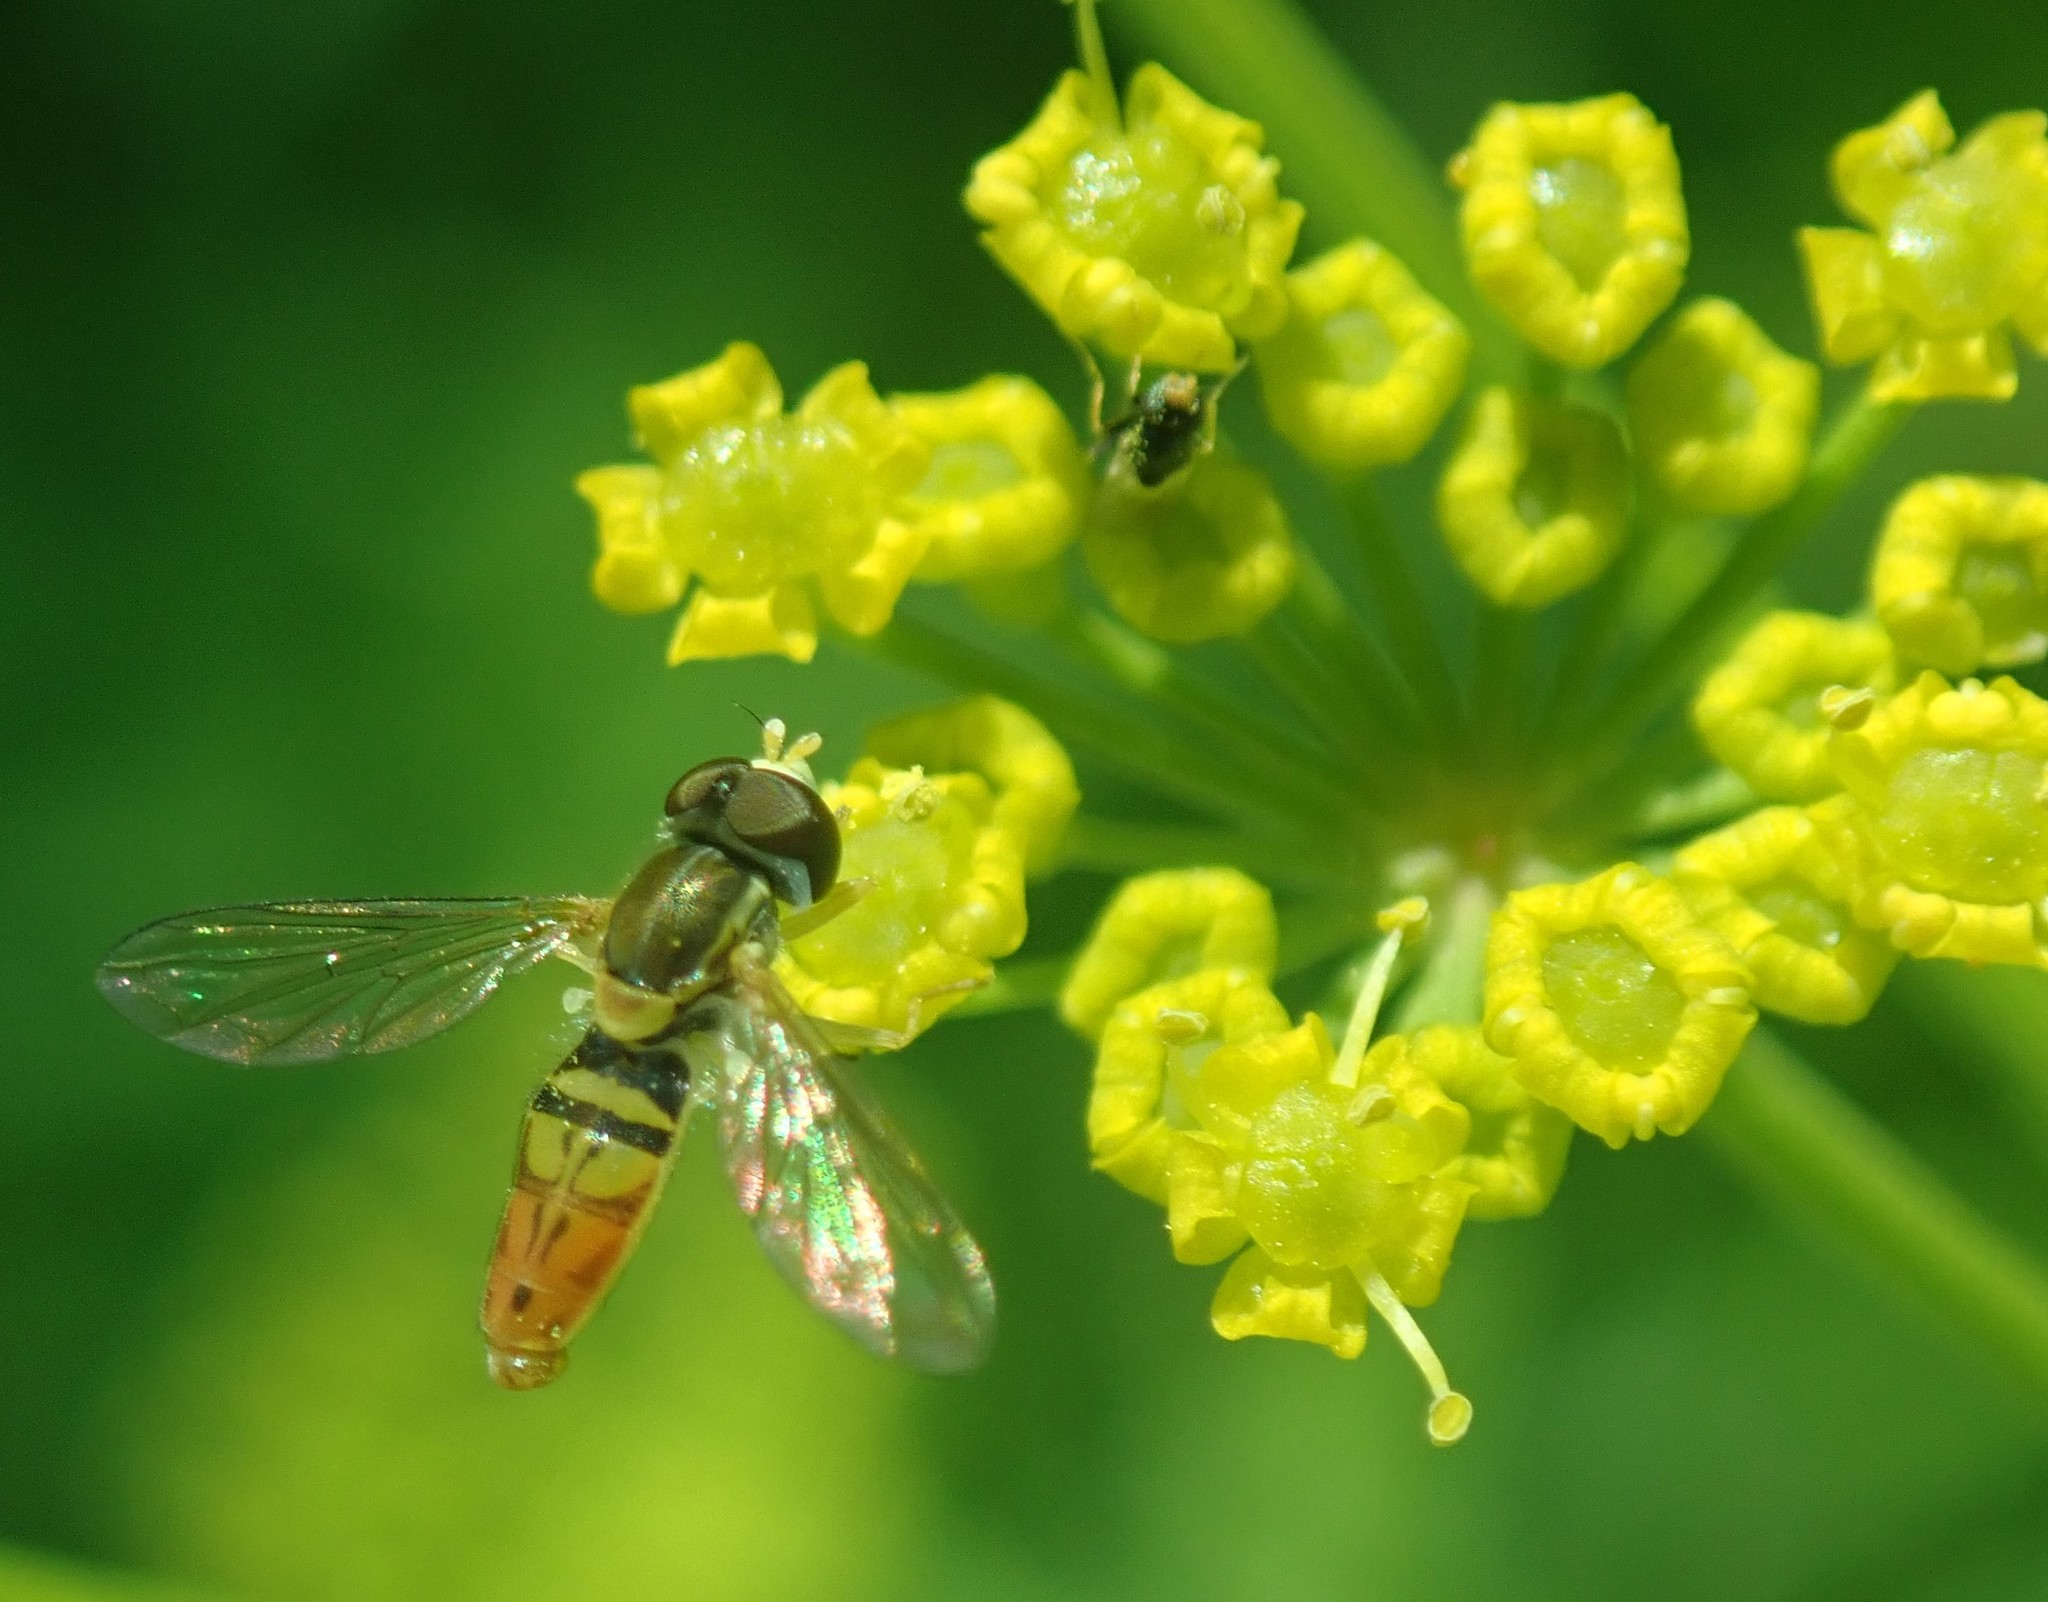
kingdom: Animalia
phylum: Arthropoda
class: Insecta
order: Diptera
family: Syrphidae
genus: Toxomerus
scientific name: Toxomerus marginatus
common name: Syrphid fly
